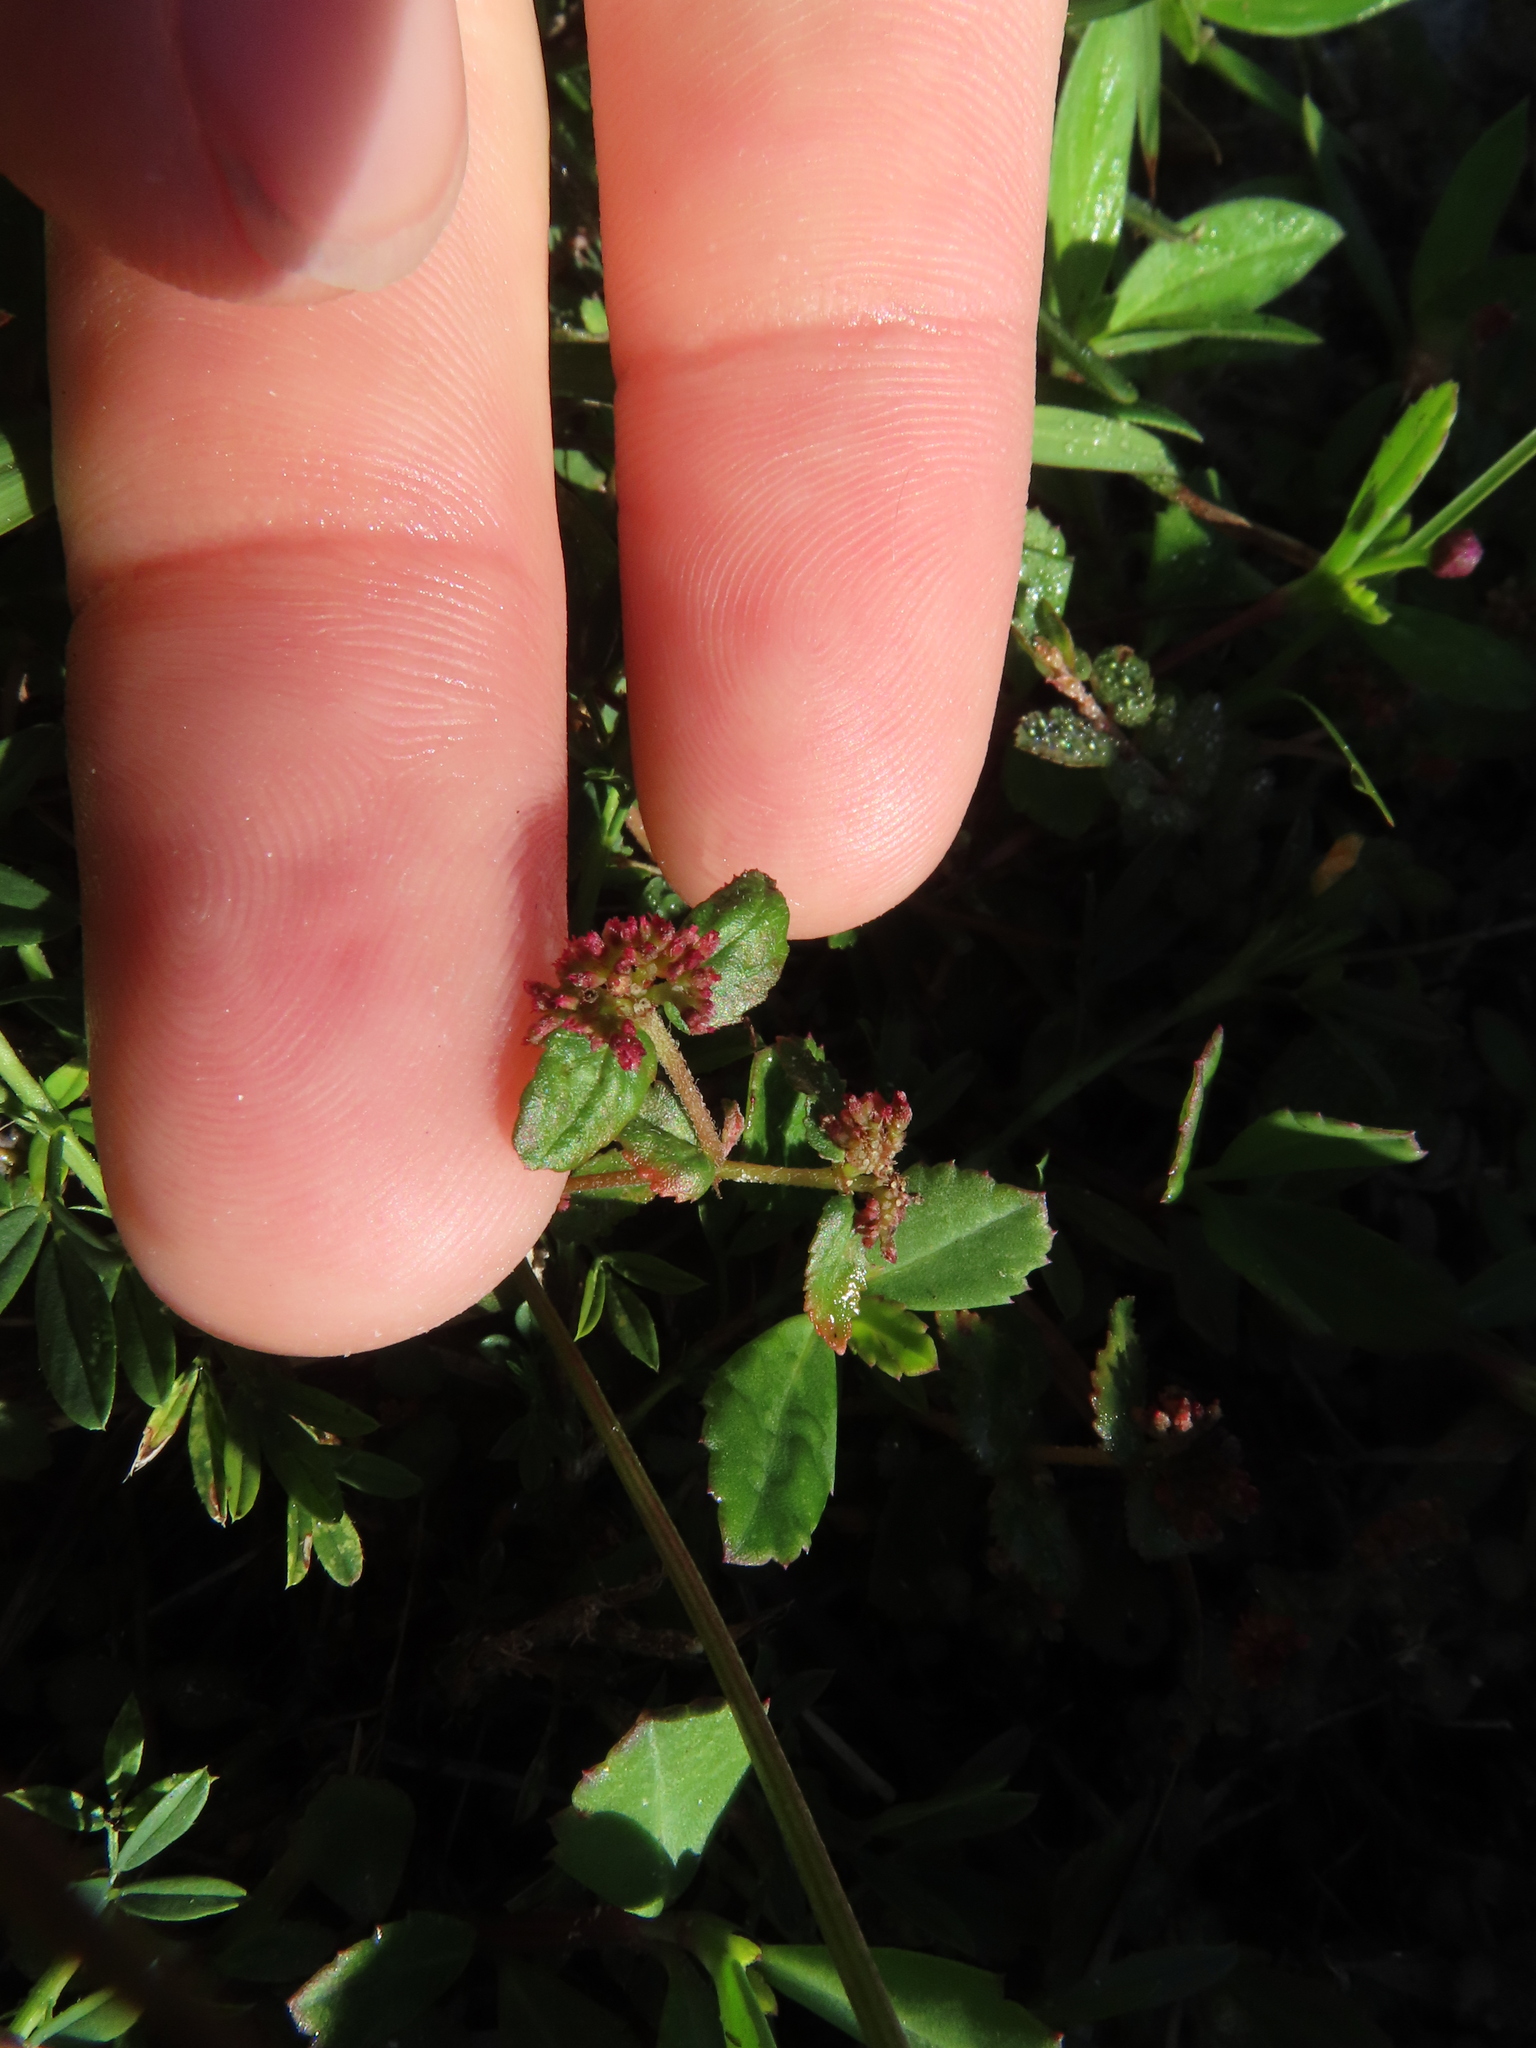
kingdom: Plantae
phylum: Tracheophyta
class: Magnoliopsida
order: Malpighiales
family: Euphorbiaceae
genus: Euphorbia
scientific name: Euphorbia ophthalmica
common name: Florida hammock sandmat
